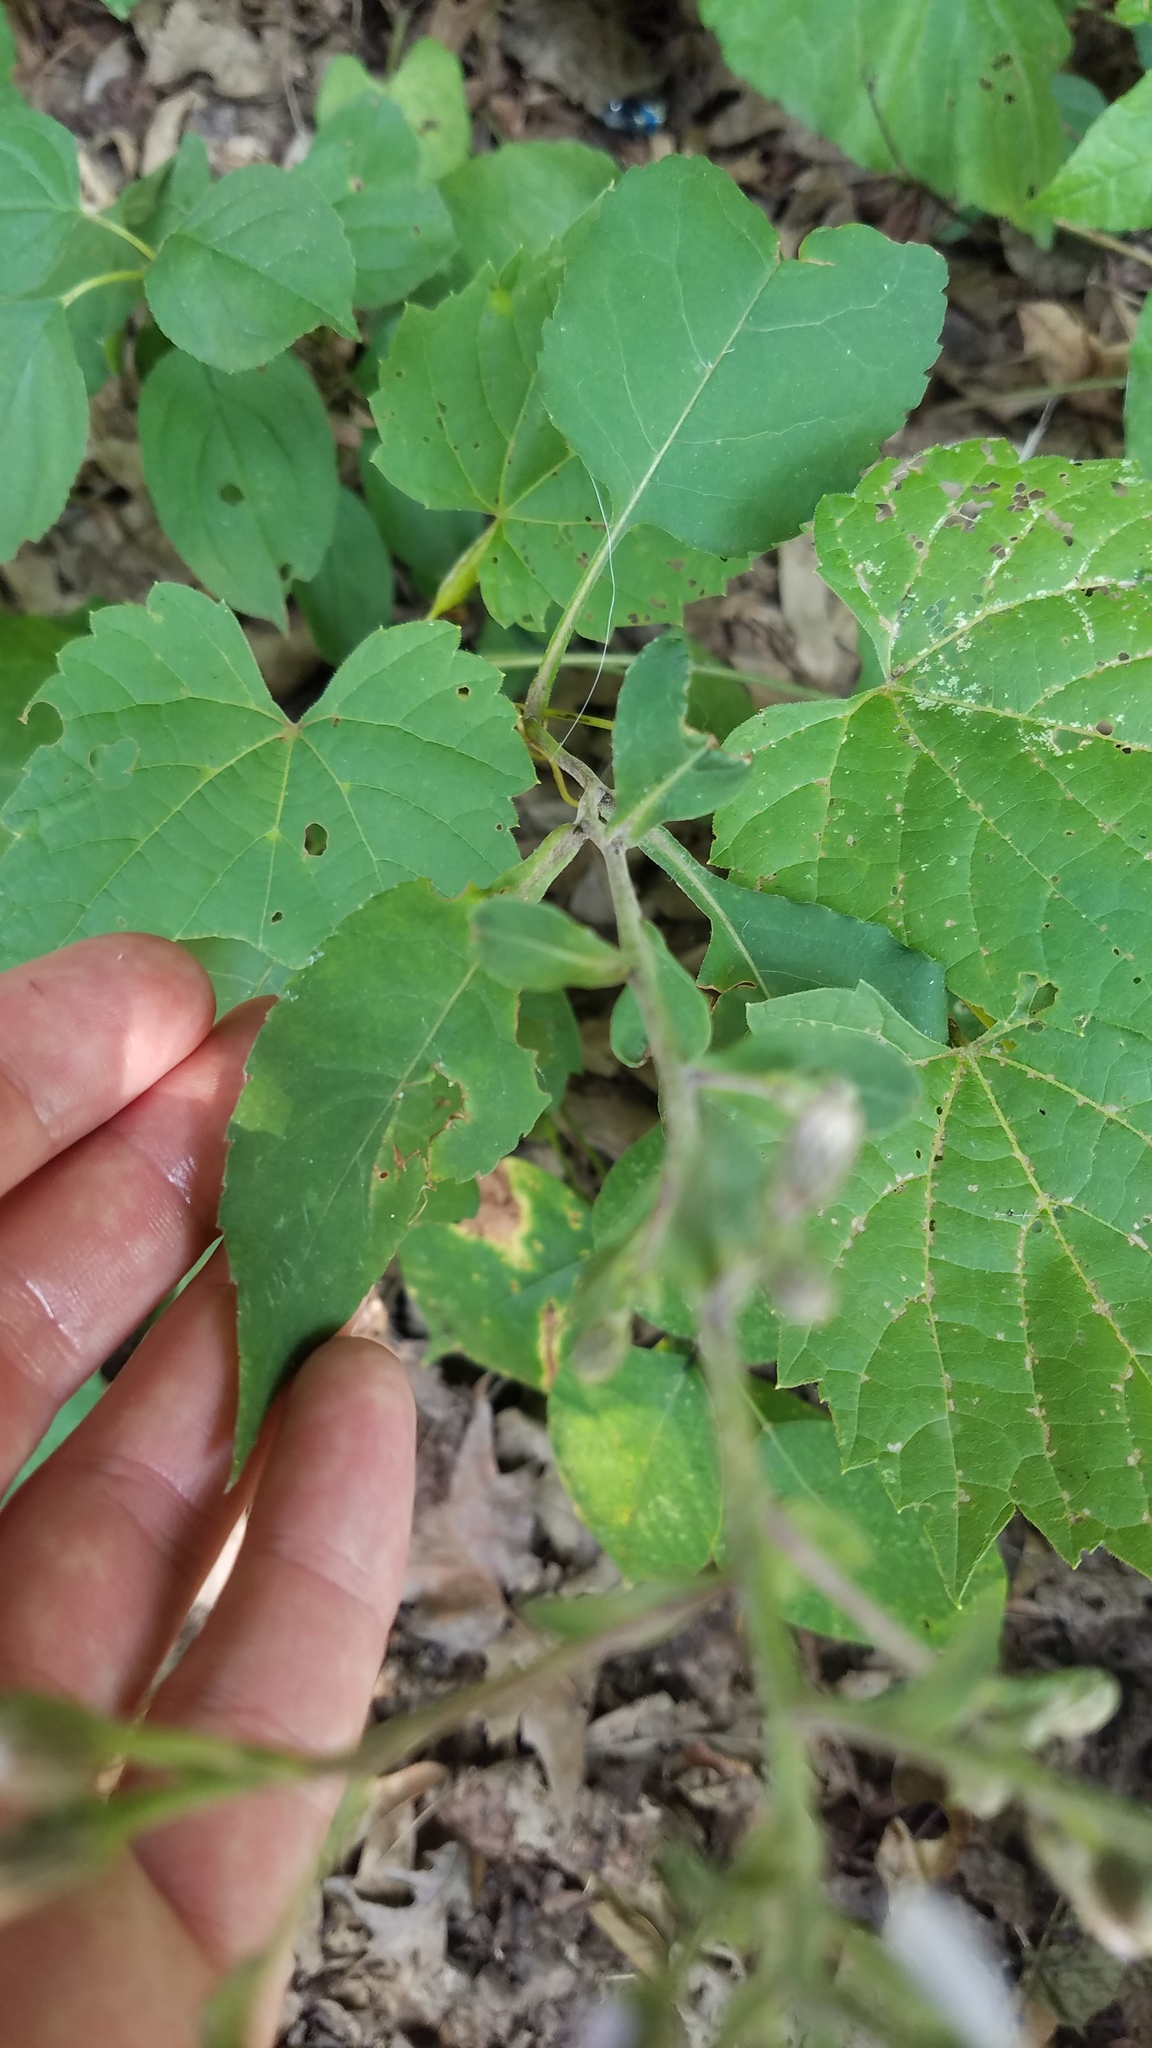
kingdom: Plantae
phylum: Tracheophyta
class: Magnoliopsida
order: Asterales
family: Asteraceae
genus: Eurybia
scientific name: Eurybia macrophylla
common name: Big-leaved aster
